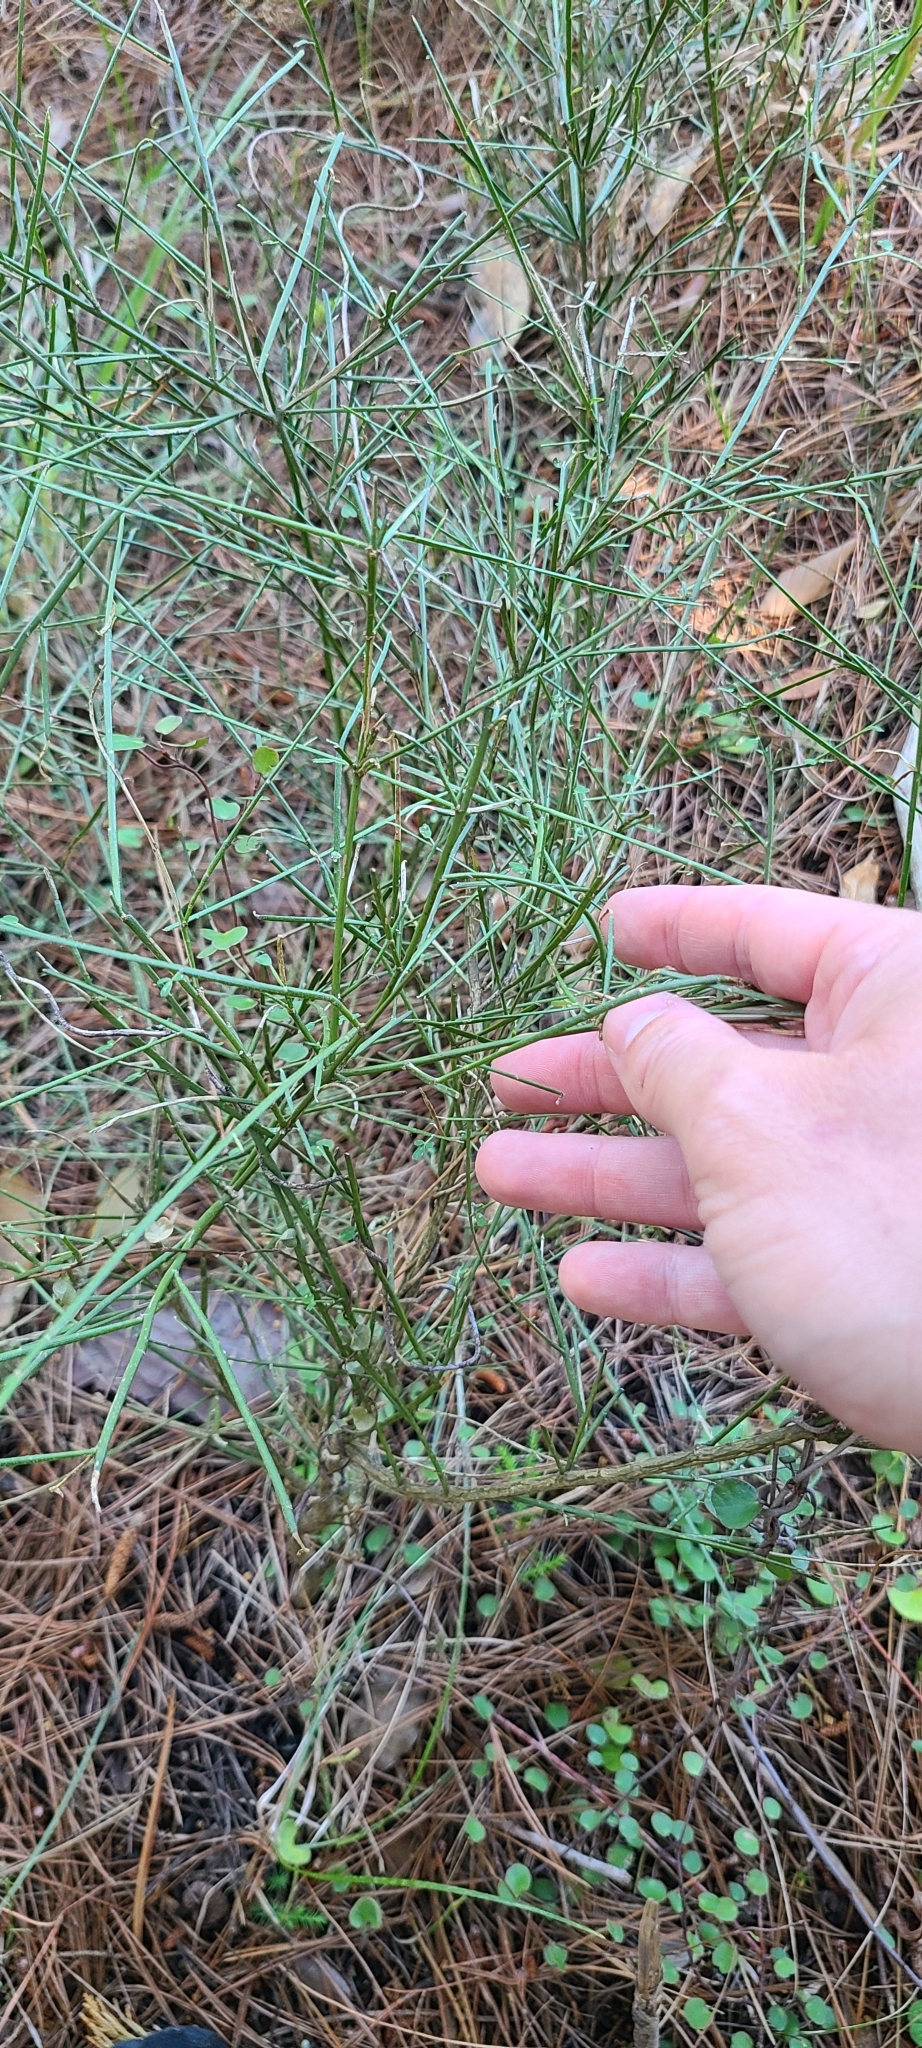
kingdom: Plantae
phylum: Tracheophyta
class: Magnoliopsida
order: Fabales
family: Fabaceae
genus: Carmichaelia
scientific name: Carmichaelia australis
